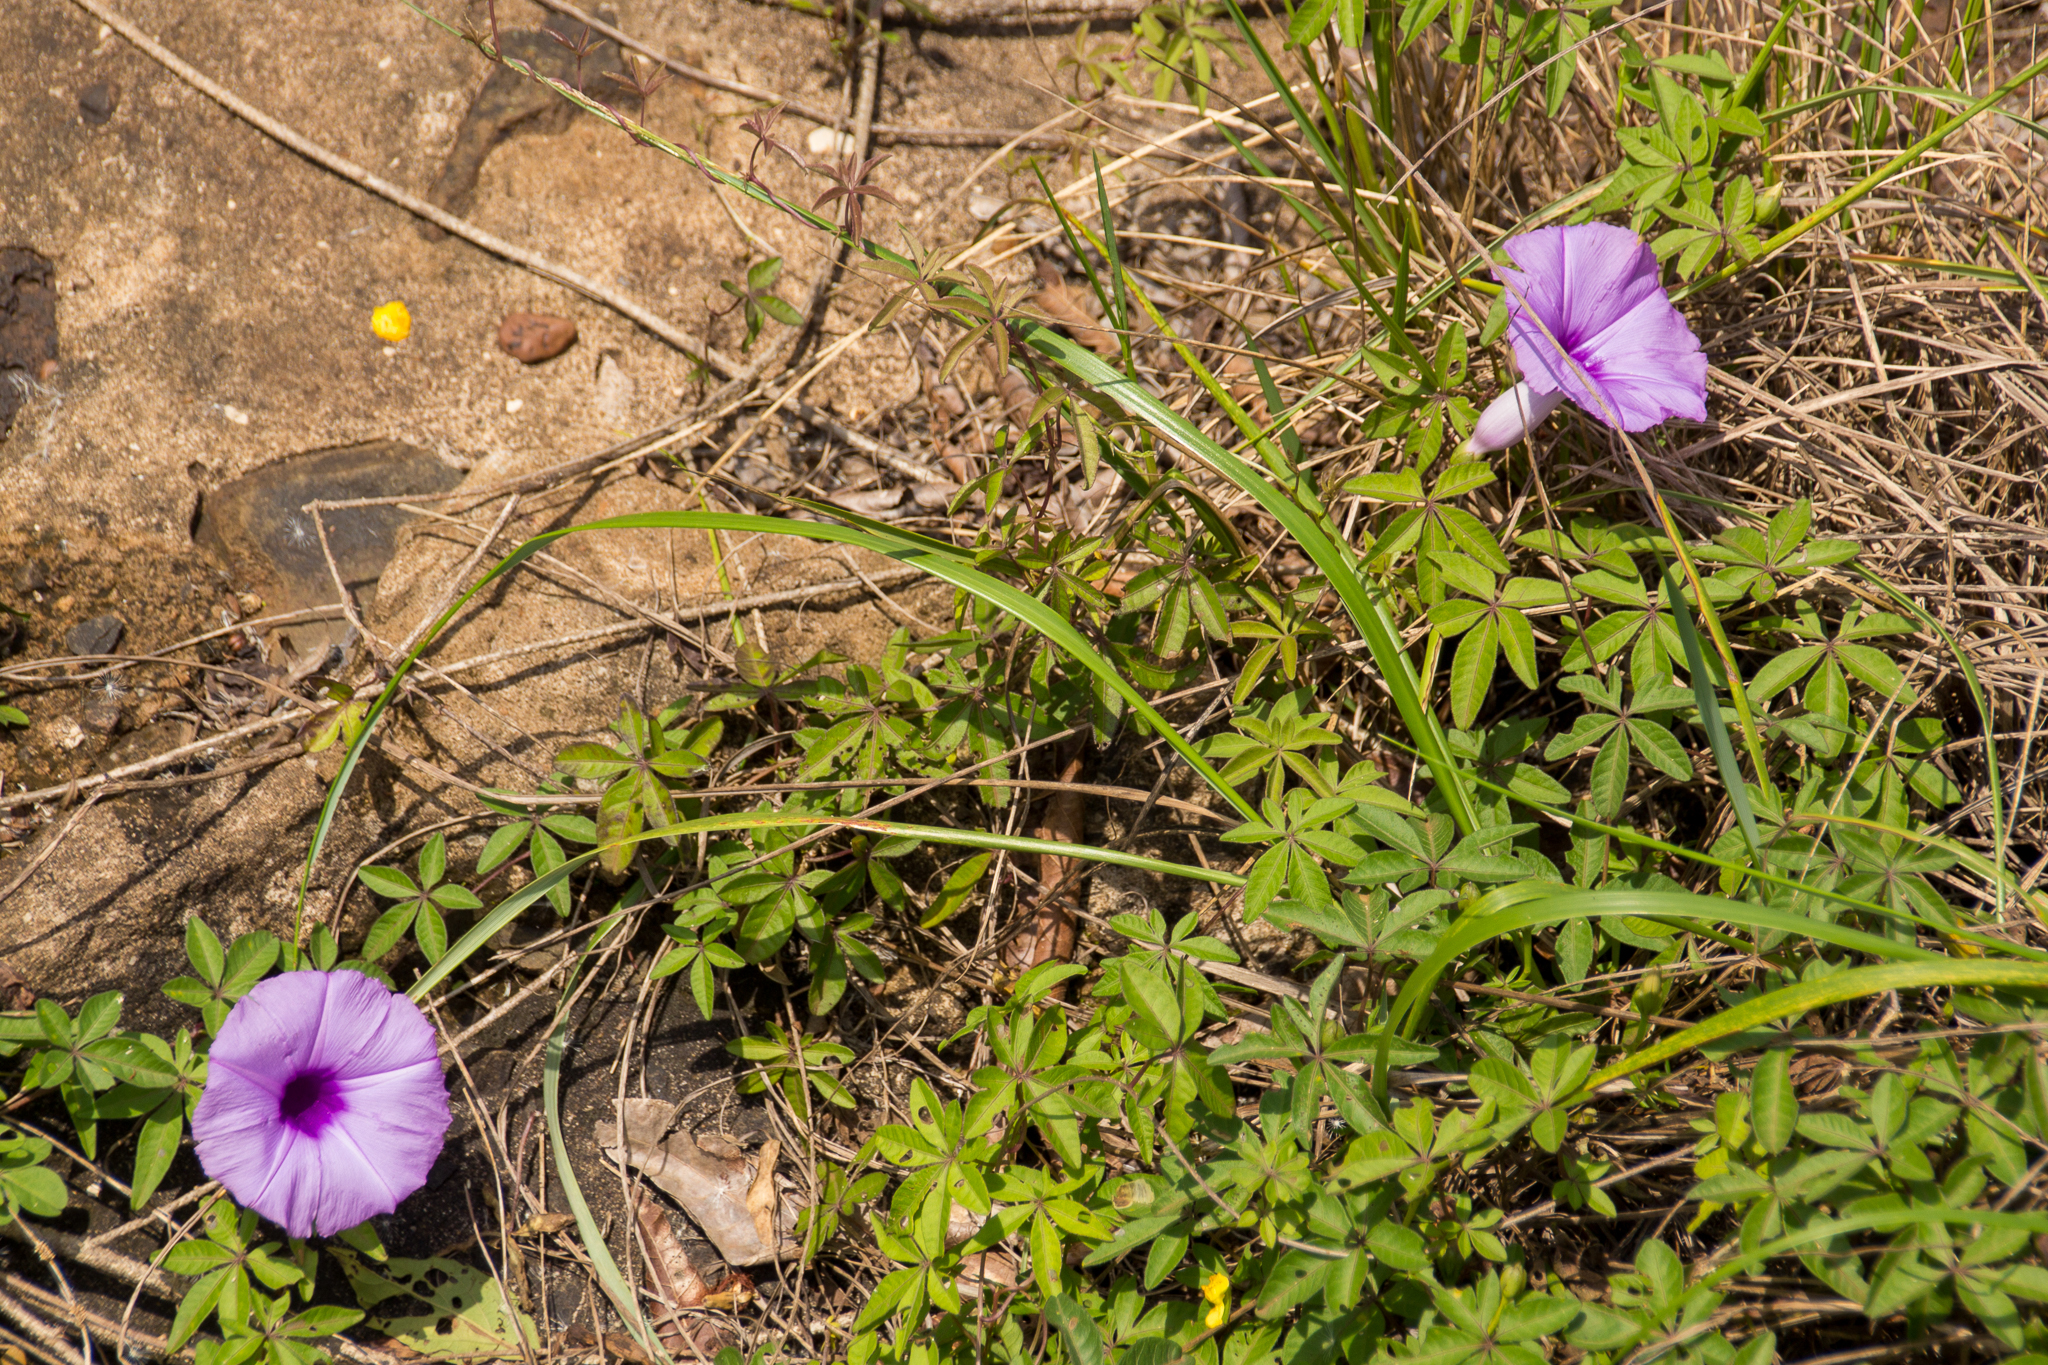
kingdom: Plantae
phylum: Tracheophyta
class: Magnoliopsida
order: Solanales
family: Convolvulaceae
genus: Ipomoea
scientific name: Ipomoea cairica
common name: Mile a minute vine
